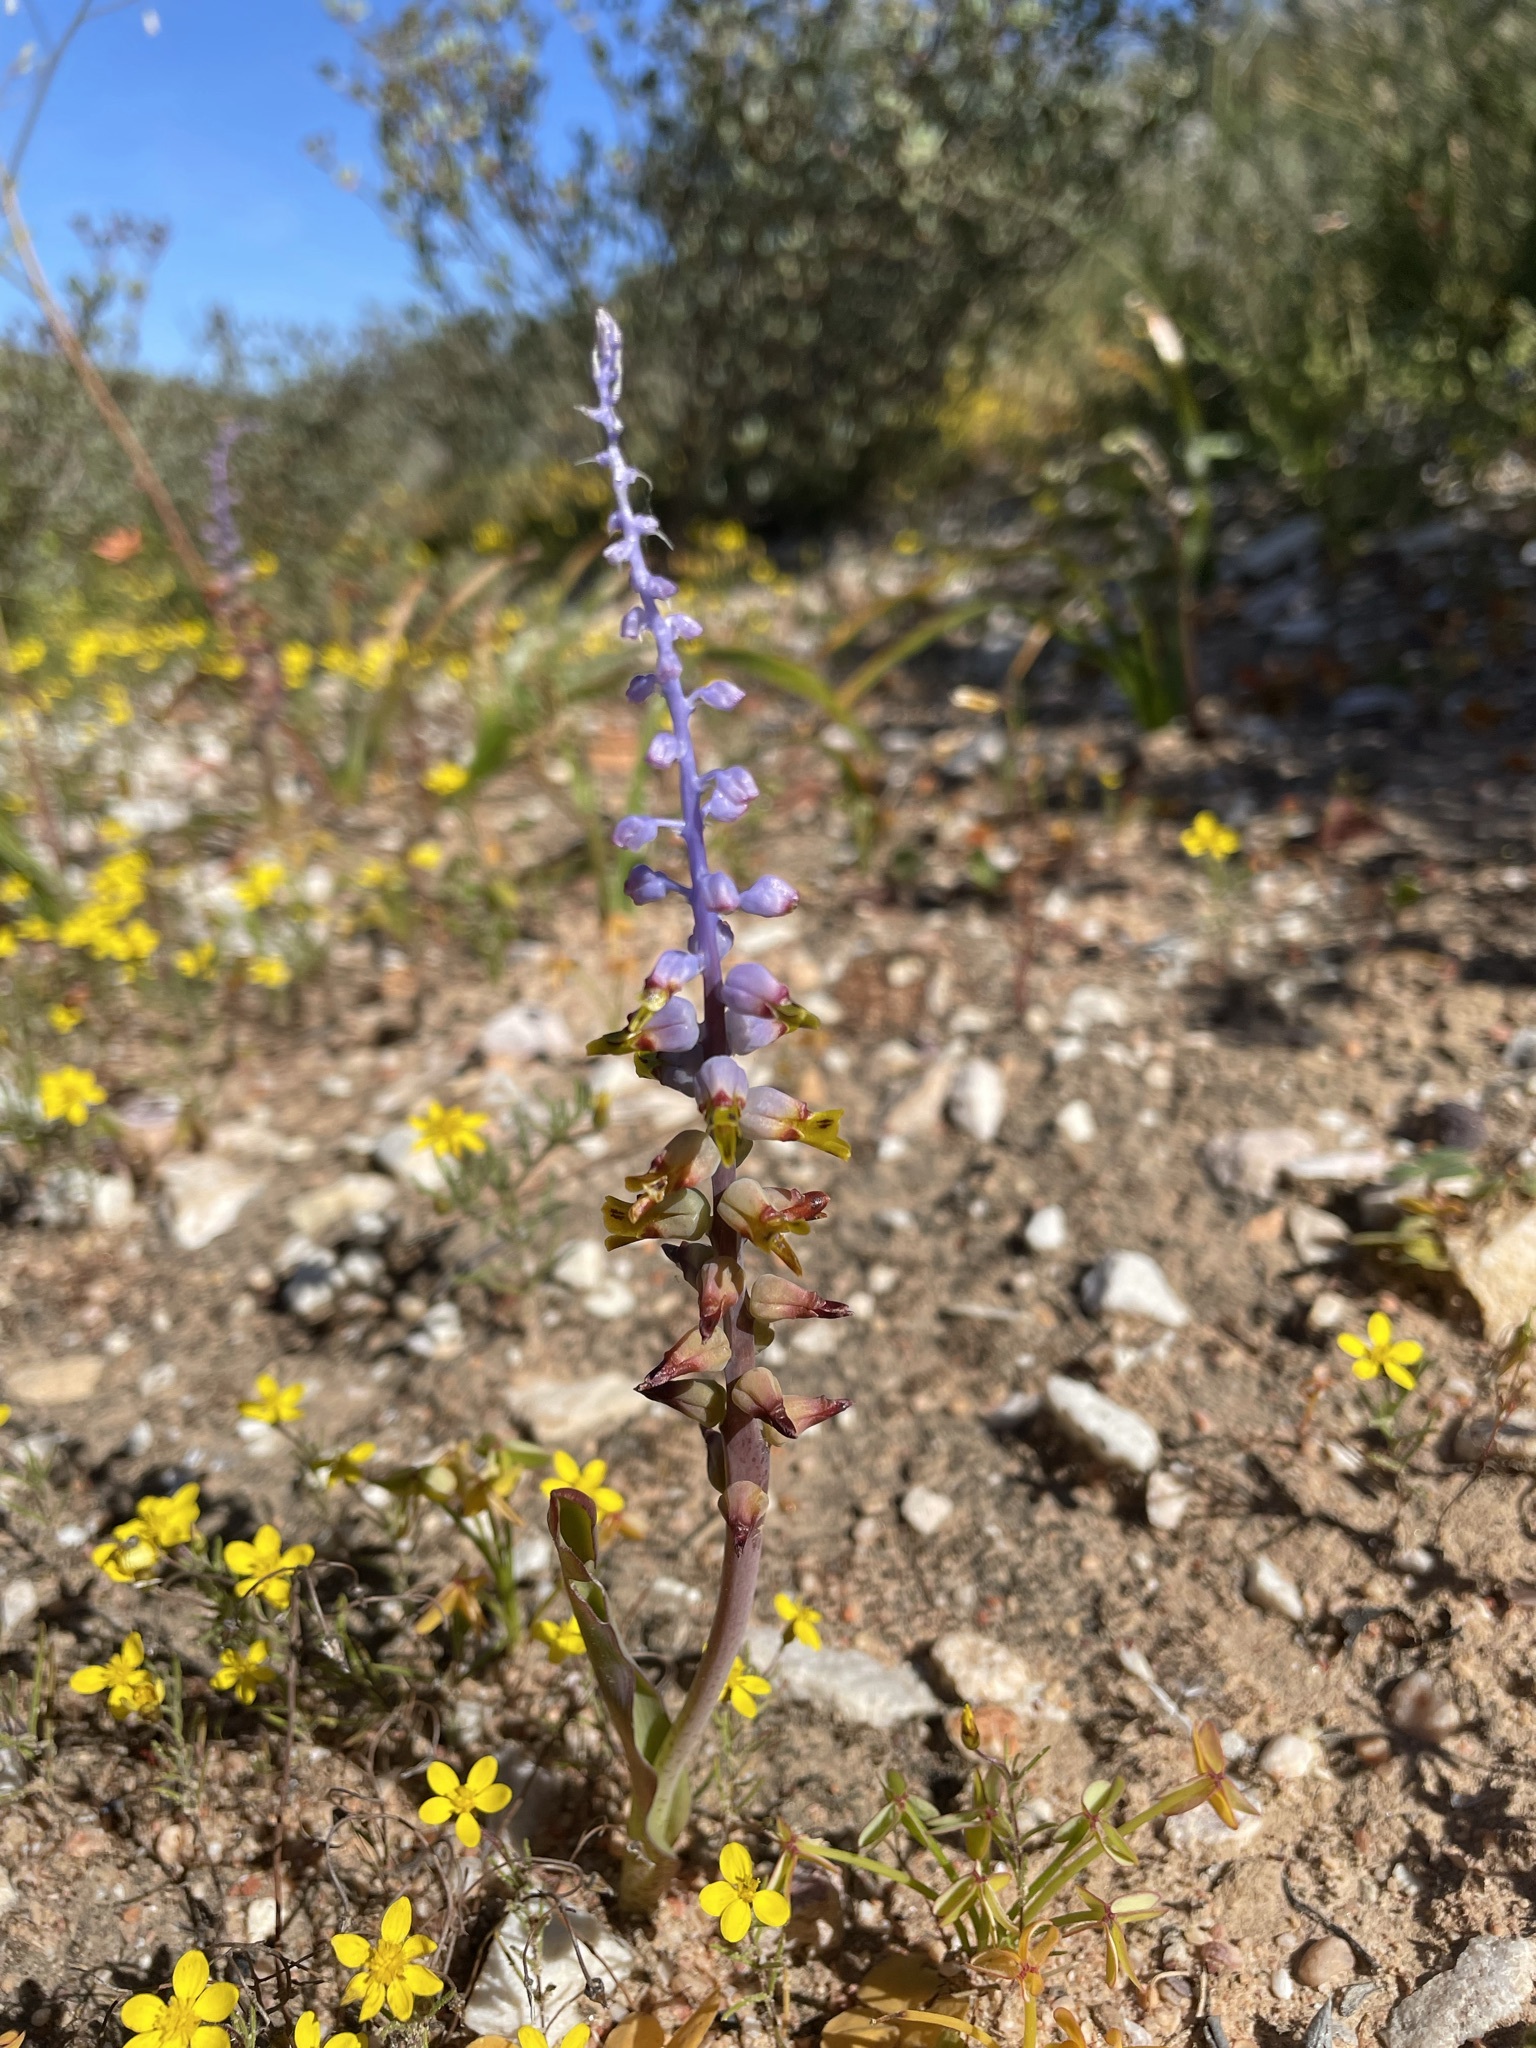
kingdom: Plantae
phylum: Tracheophyta
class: Liliopsida
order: Asparagales
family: Asparagaceae
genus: Lachenalia
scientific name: Lachenalia mutabilis
